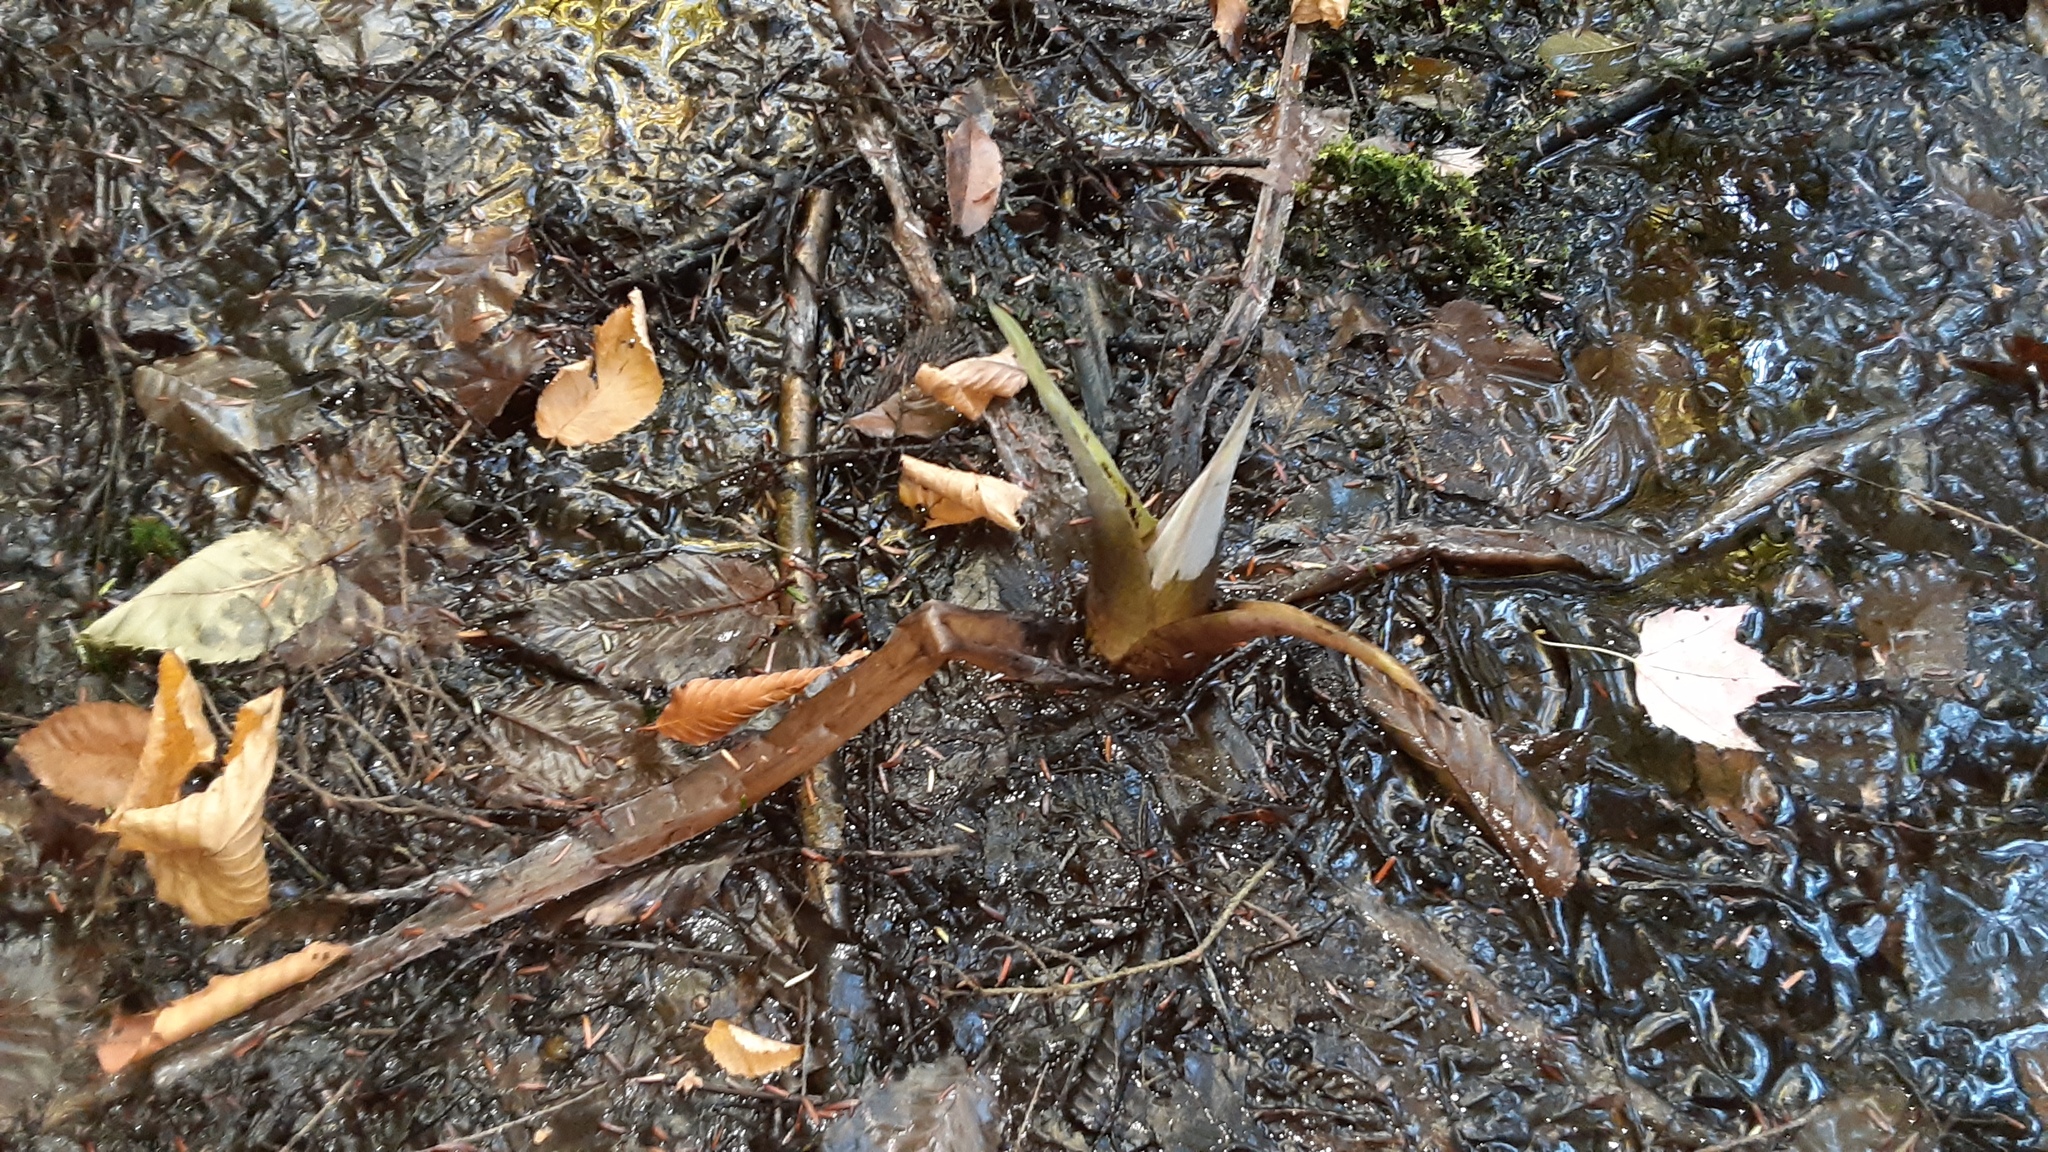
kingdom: Plantae
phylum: Tracheophyta
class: Liliopsida
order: Alismatales
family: Araceae
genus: Symplocarpus
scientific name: Symplocarpus foetidus
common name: Eastern skunk cabbage
